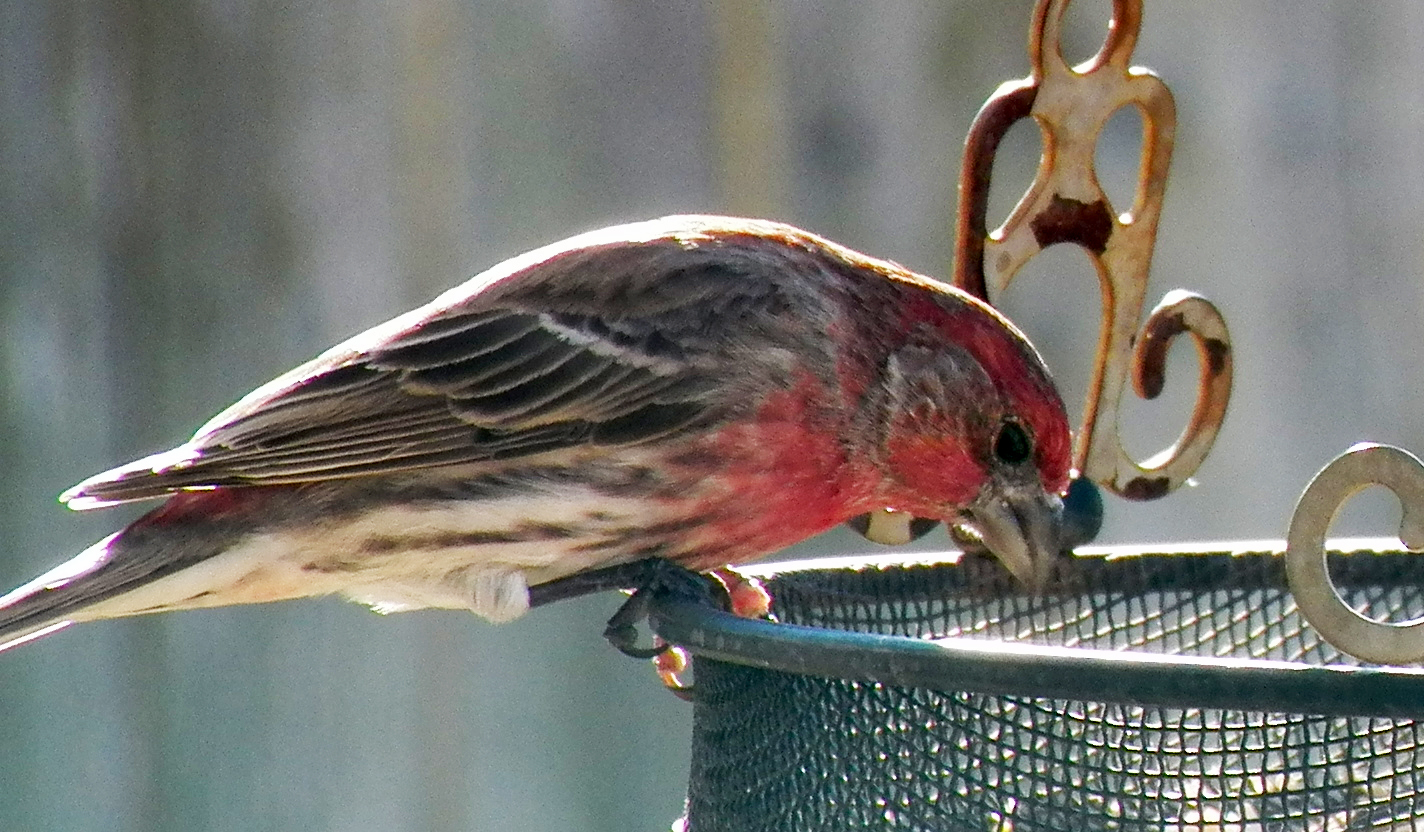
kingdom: Animalia
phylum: Chordata
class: Aves
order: Passeriformes
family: Fringillidae
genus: Haemorhous
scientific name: Haemorhous mexicanus
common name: House finch
